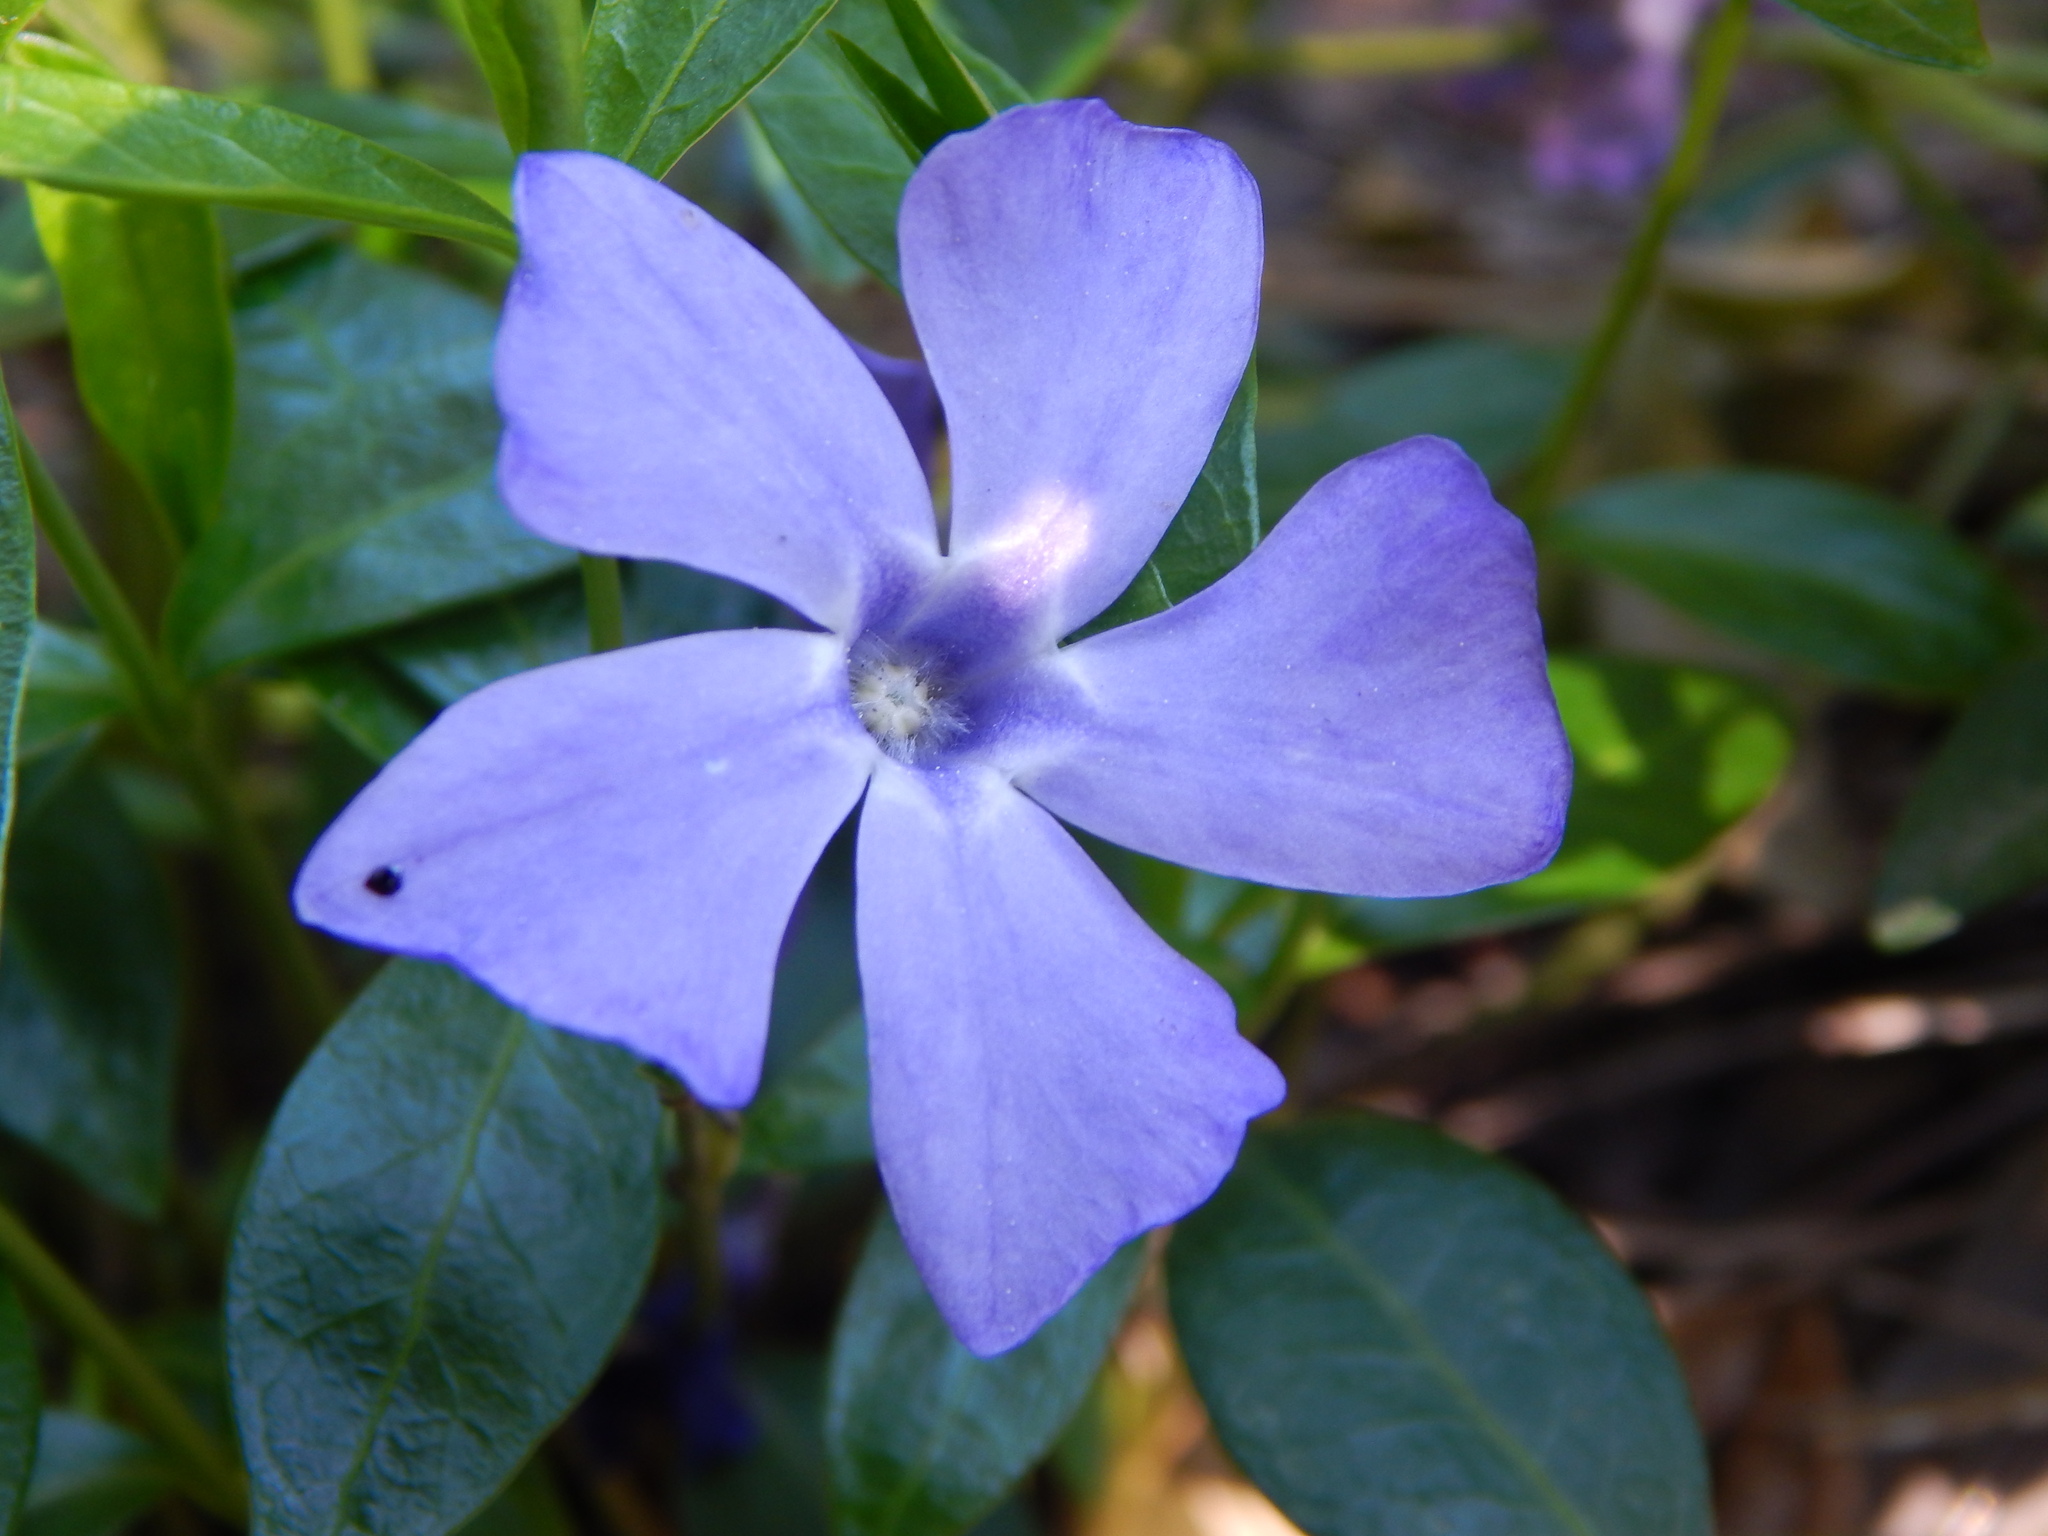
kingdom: Plantae
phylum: Tracheophyta
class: Magnoliopsida
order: Gentianales
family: Apocynaceae
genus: Vinca
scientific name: Vinca minor
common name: Lesser periwinkle
